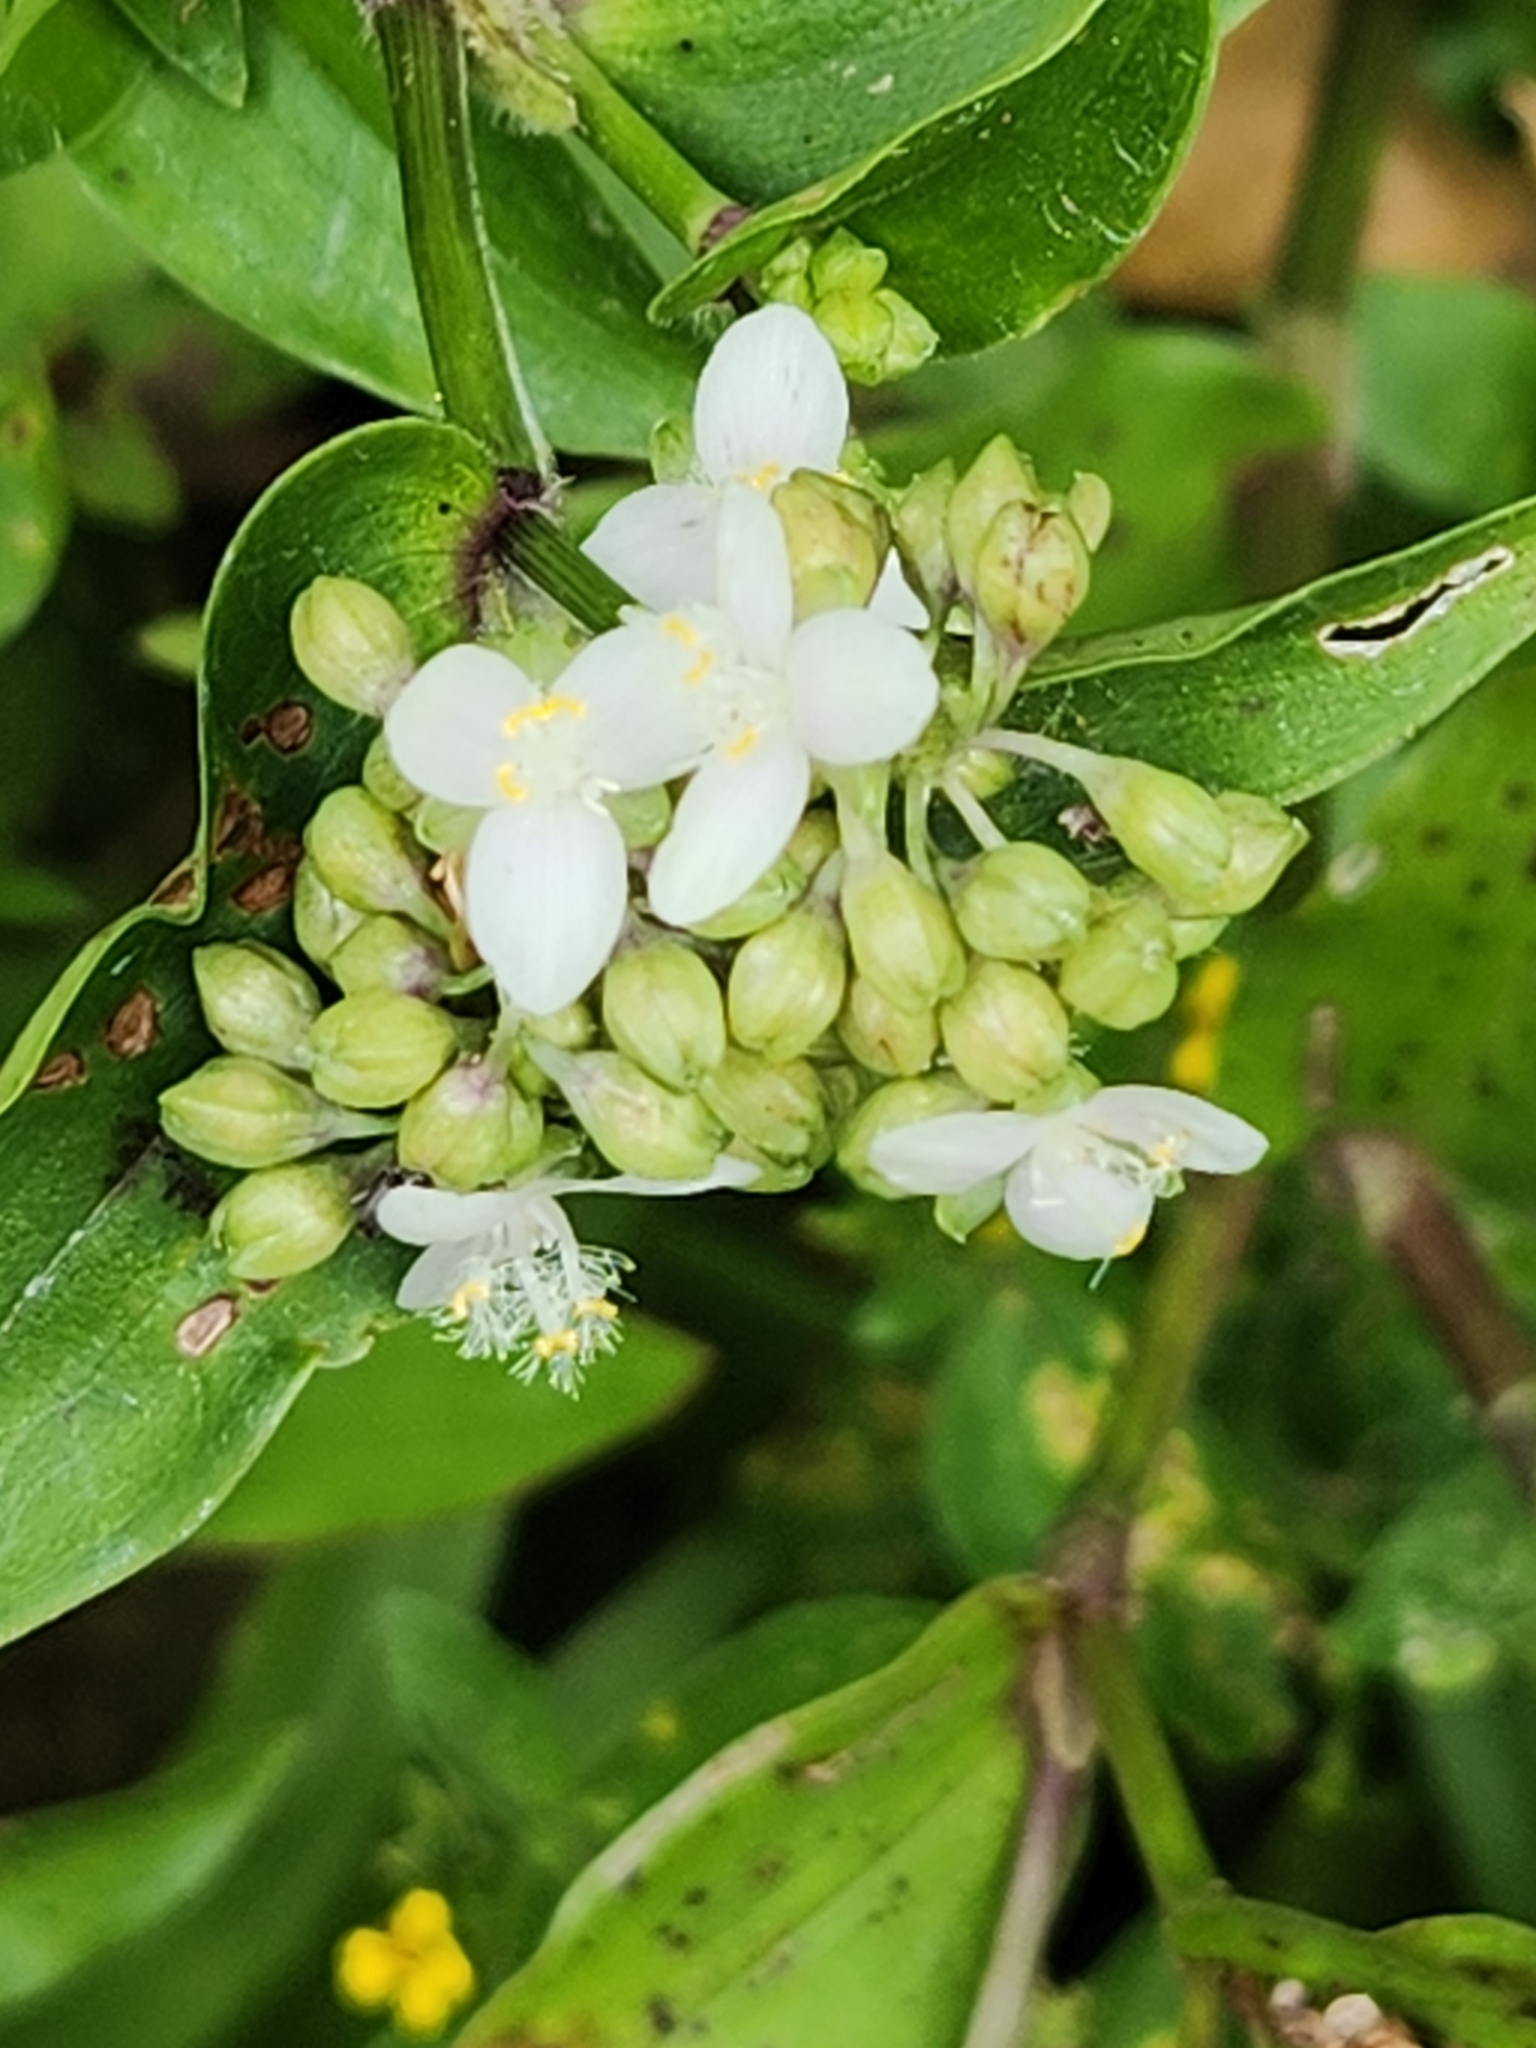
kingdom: Plantae
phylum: Tracheophyta
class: Liliopsida
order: Commelinales
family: Commelinaceae
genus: Callisia
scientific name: Callisia serrulata
